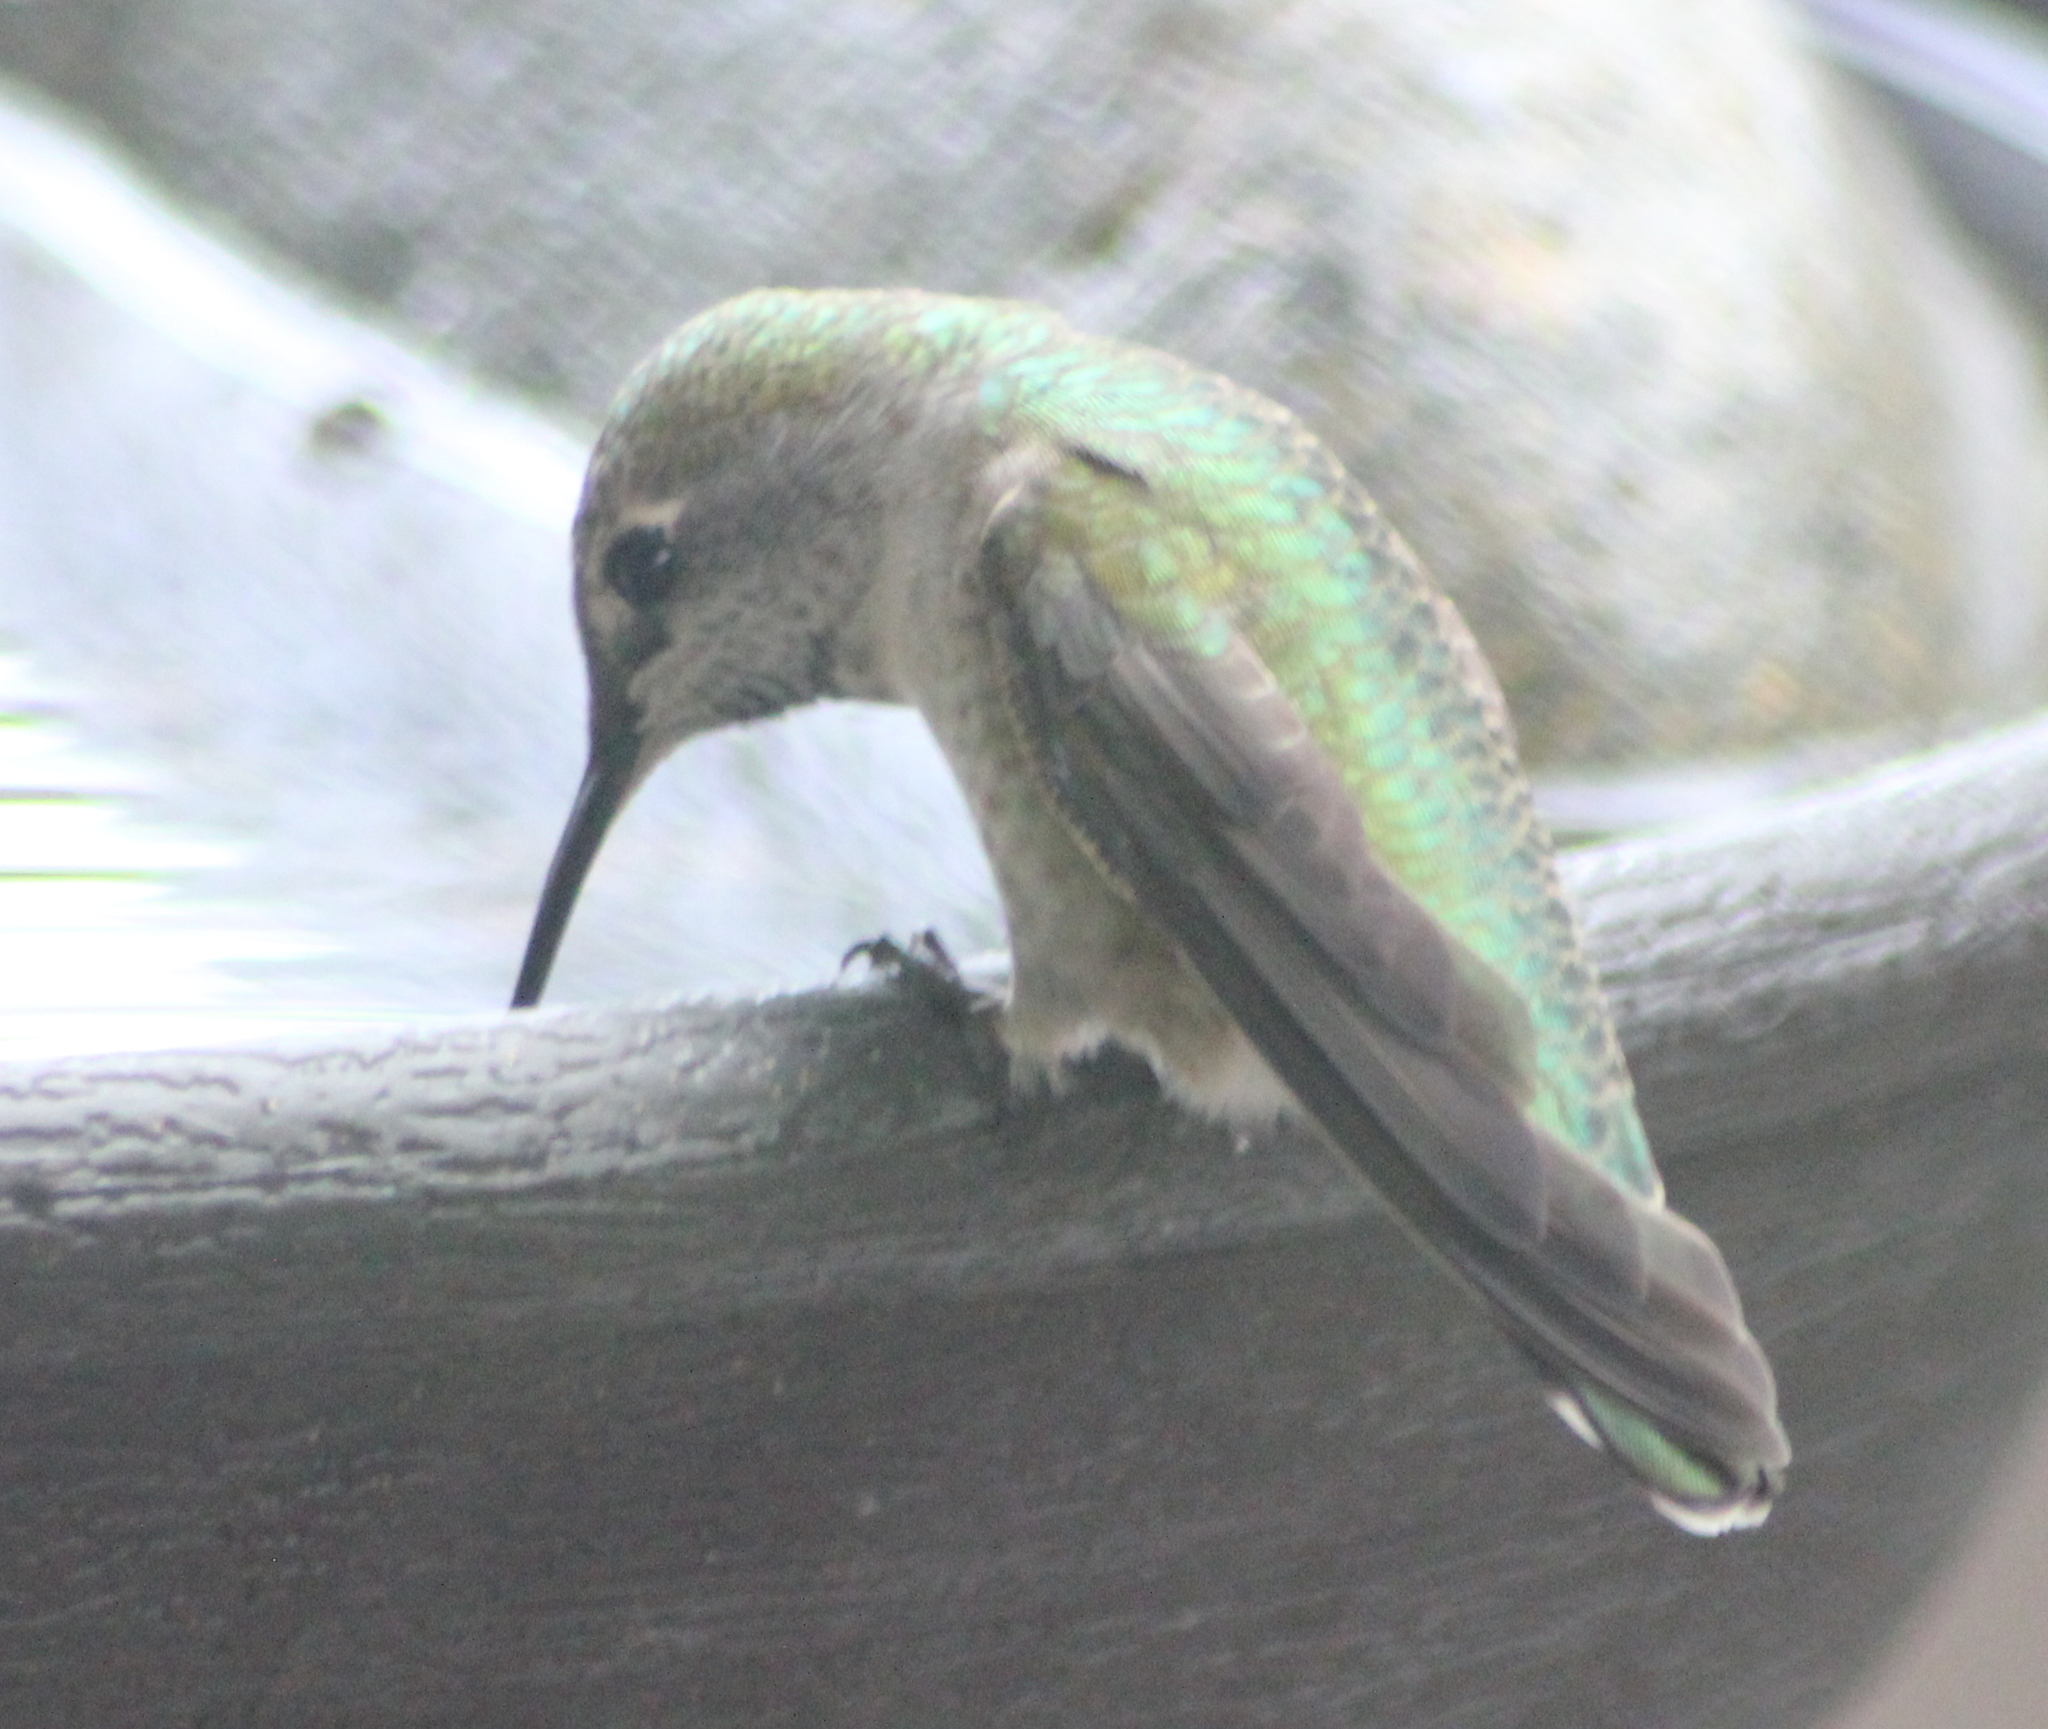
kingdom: Animalia
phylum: Chordata
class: Aves
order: Apodiformes
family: Trochilidae
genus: Calypte
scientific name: Calypte anna
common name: Anna's hummingbird
